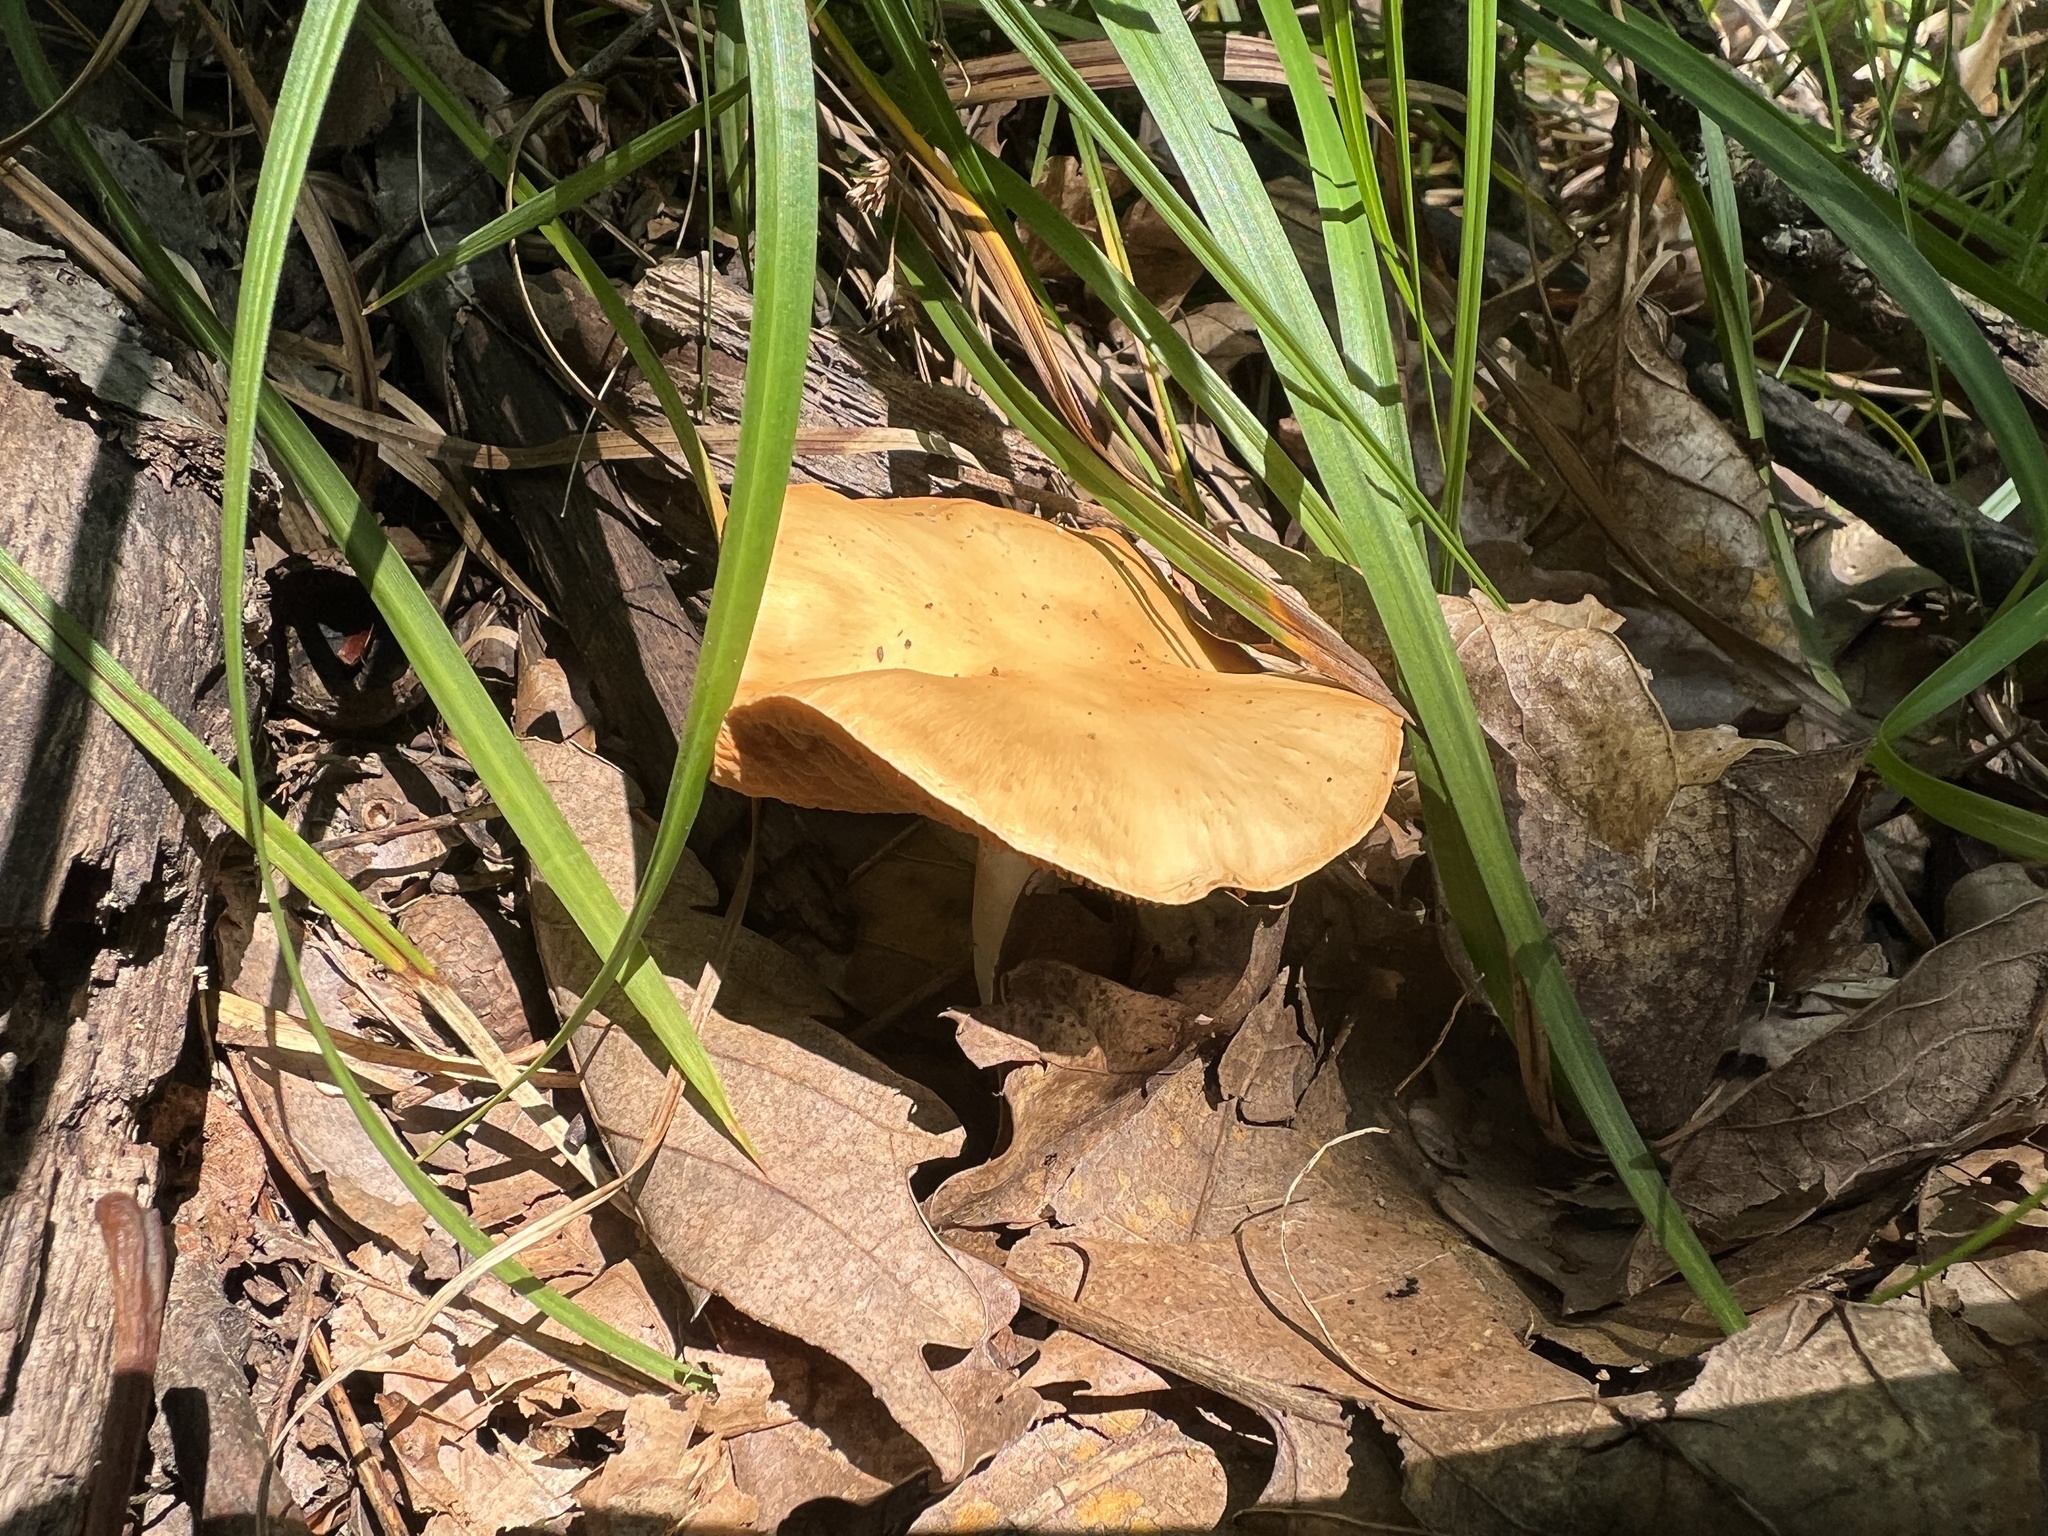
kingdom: Fungi
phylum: Basidiomycota
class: Agaricomycetes
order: Agaricales
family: Cortinariaceae
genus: Thaxterogaster
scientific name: Thaxterogaster vibratilis
